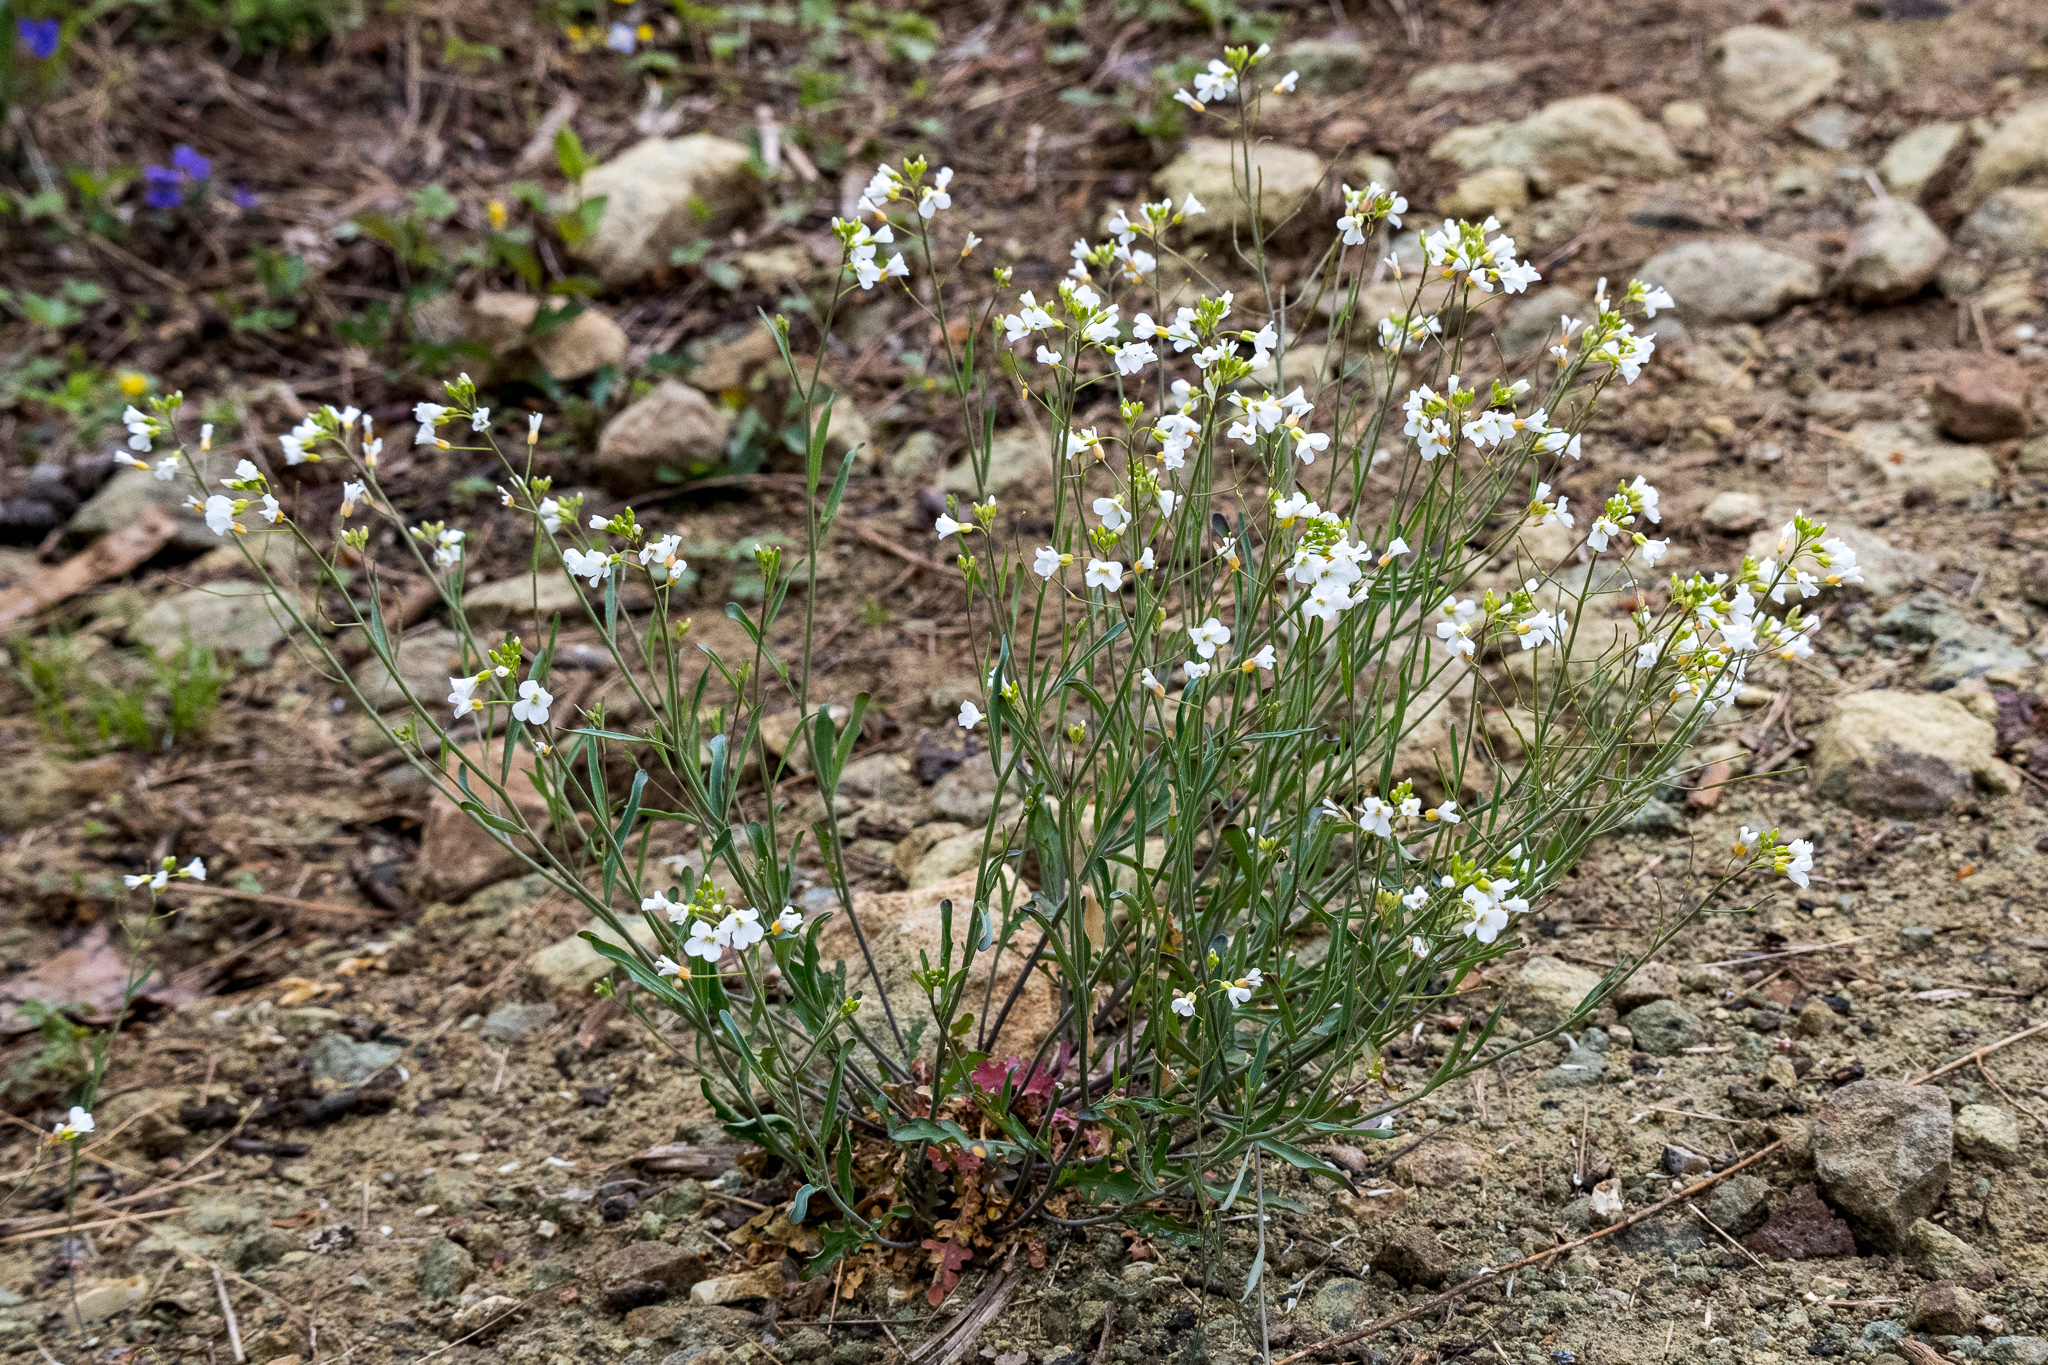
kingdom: Plantae
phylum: Tracheophyta
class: Magnoliopsida
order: Brassicales
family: Brassicaceae
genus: Arabidopsis
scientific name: Arabidopsis lyrata
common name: Lyrate rockcress
